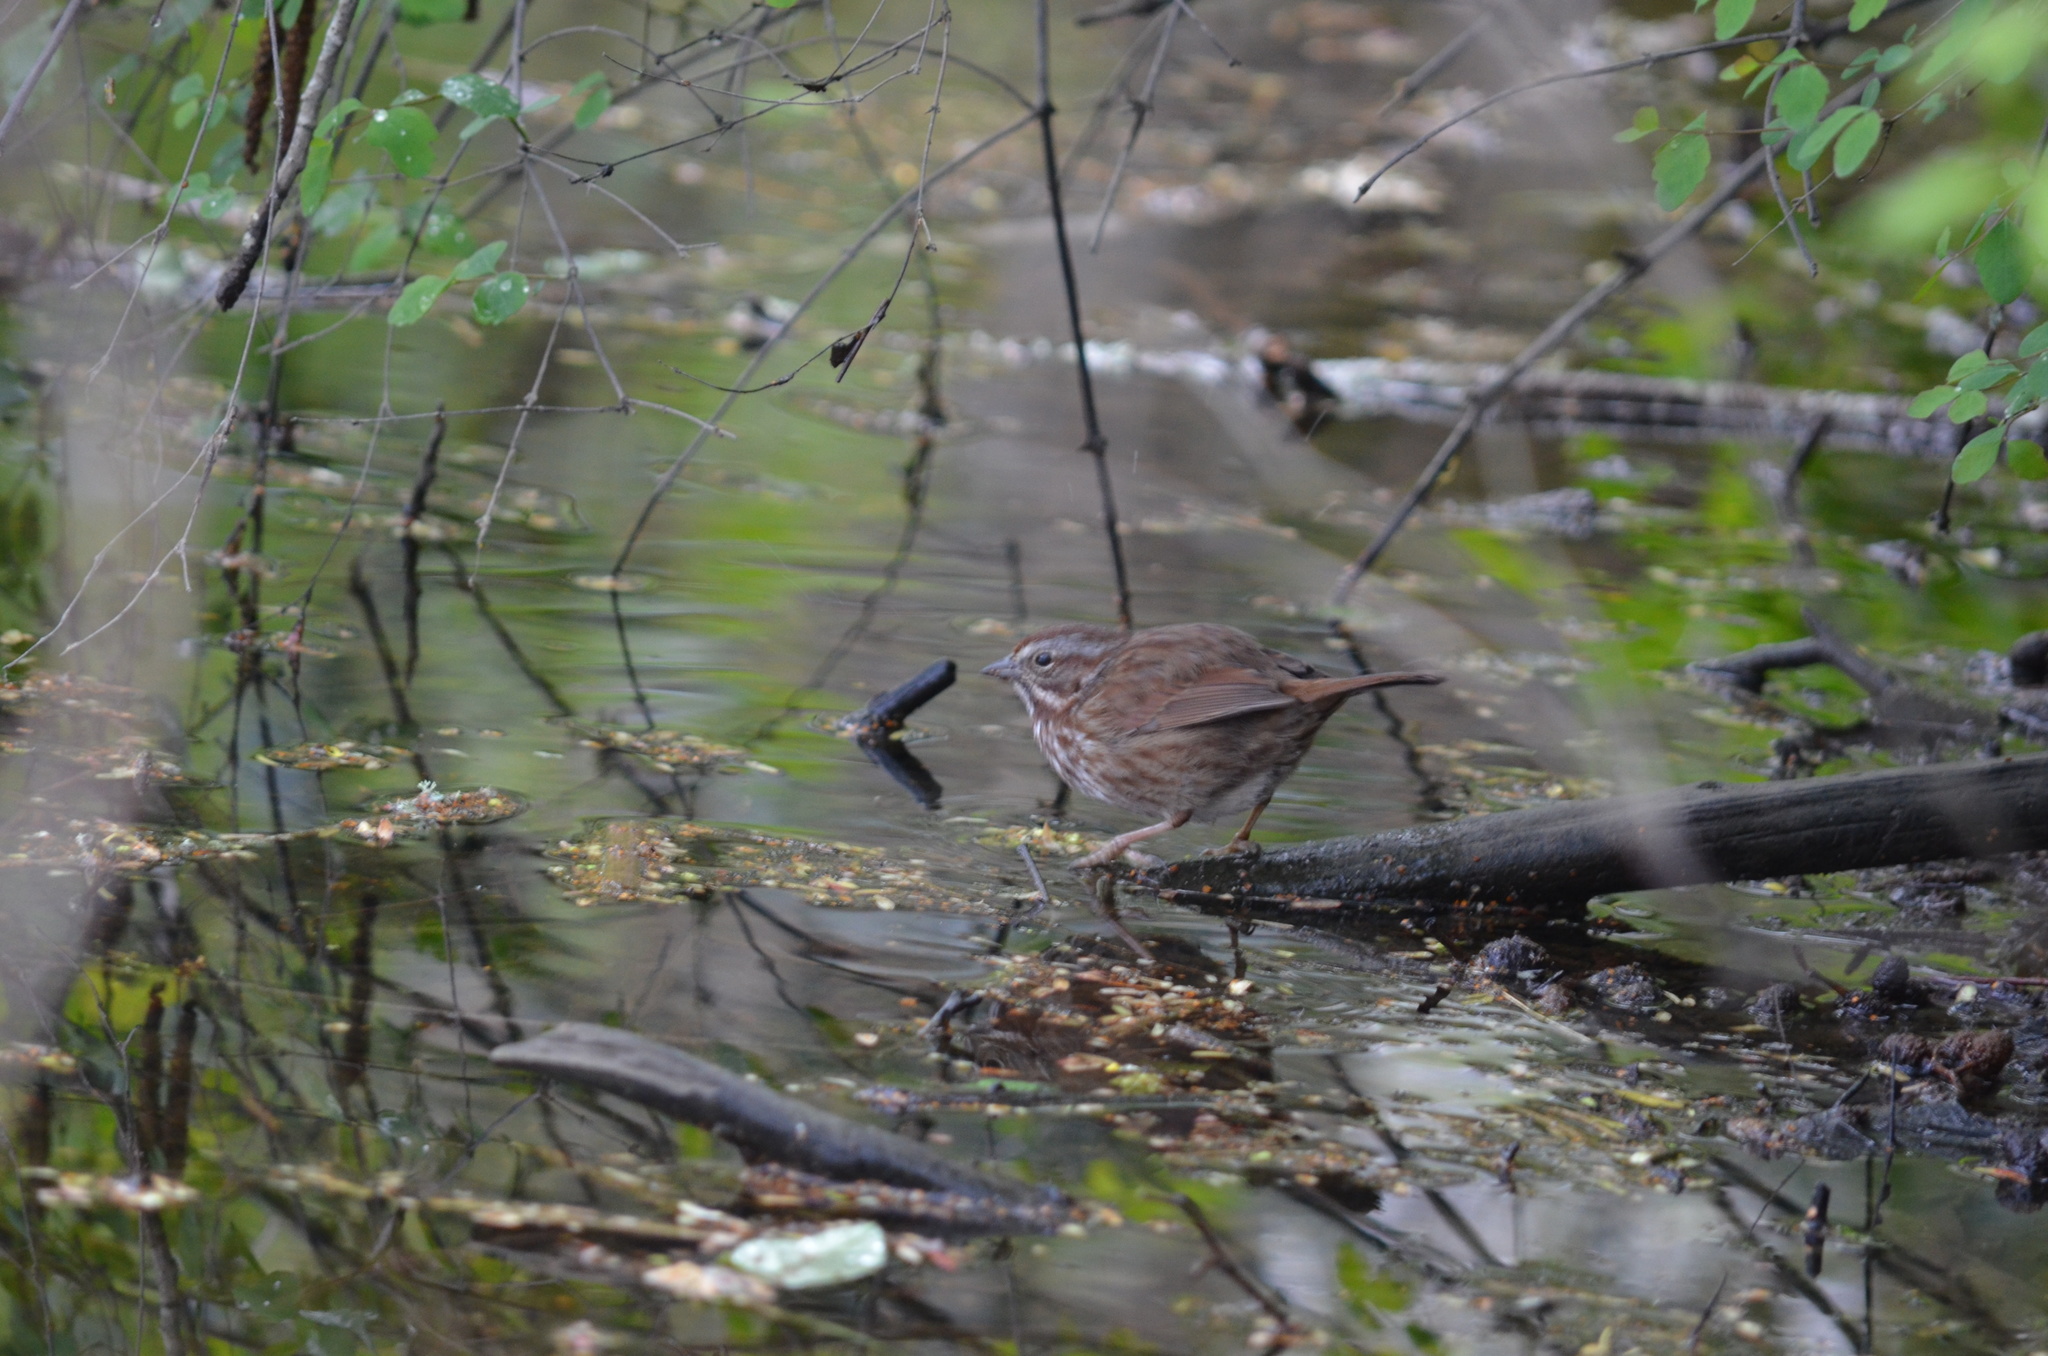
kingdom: Animalia
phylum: Chordata
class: Aves
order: Passeriformes
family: Passerellidae
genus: Melospiza
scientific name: Melospiza melodia
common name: Song sparrow
